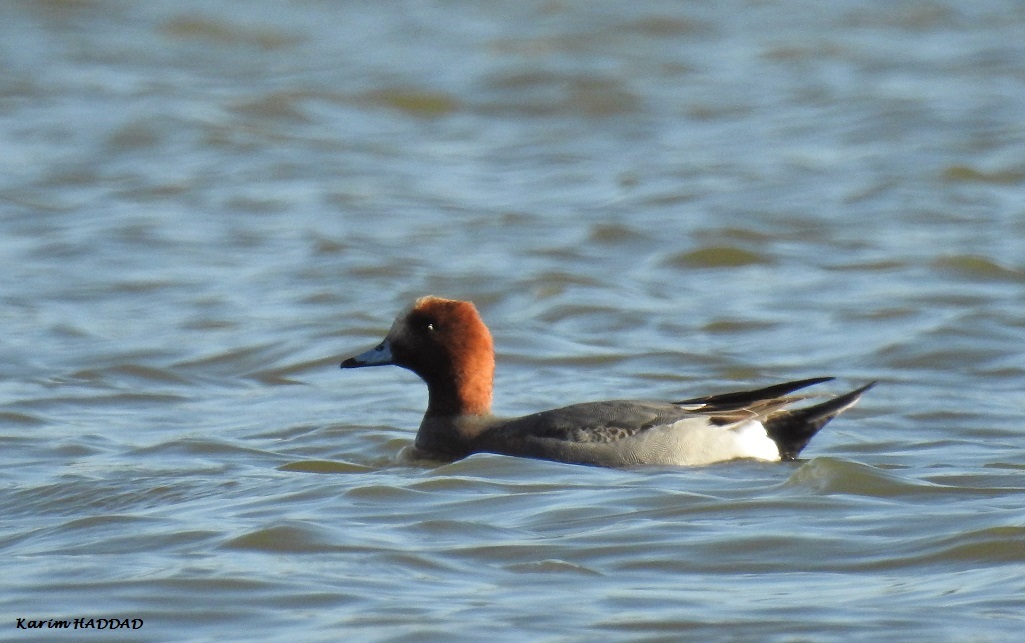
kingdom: Animalia
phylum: Chordata
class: Aves
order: Anseriformes
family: Anatidae
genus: Mareca
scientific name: Mareca penelope
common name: Eurasian wigeon
